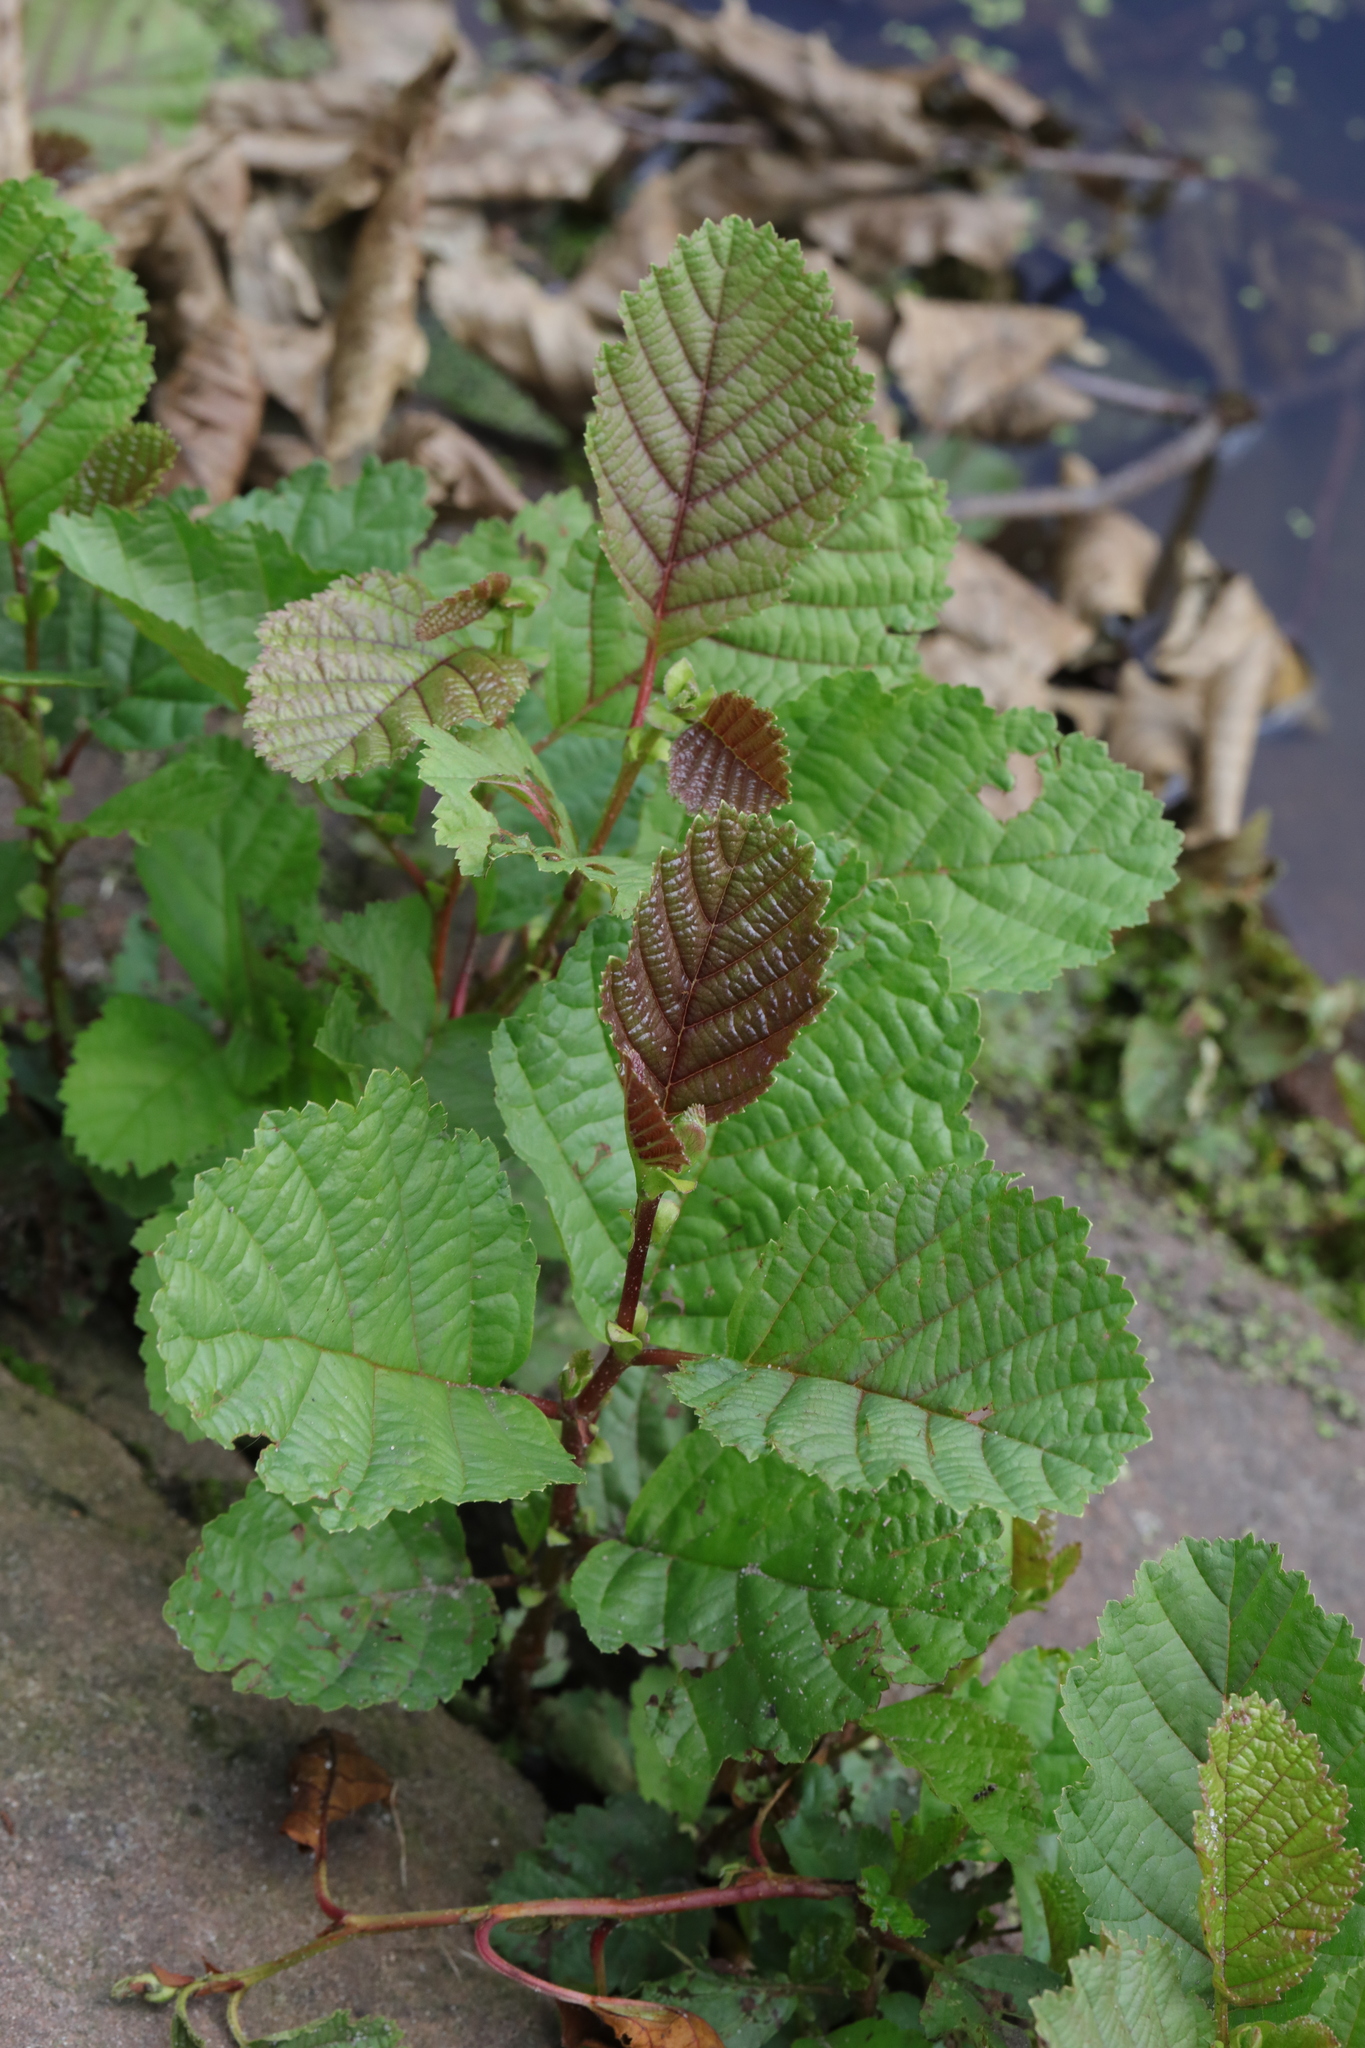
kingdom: Plantae
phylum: Tracheophyta
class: Magnoliopsida
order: Fagales
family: Betulaceae
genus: Alnus
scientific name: Alnus glutinosa
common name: Black alder
